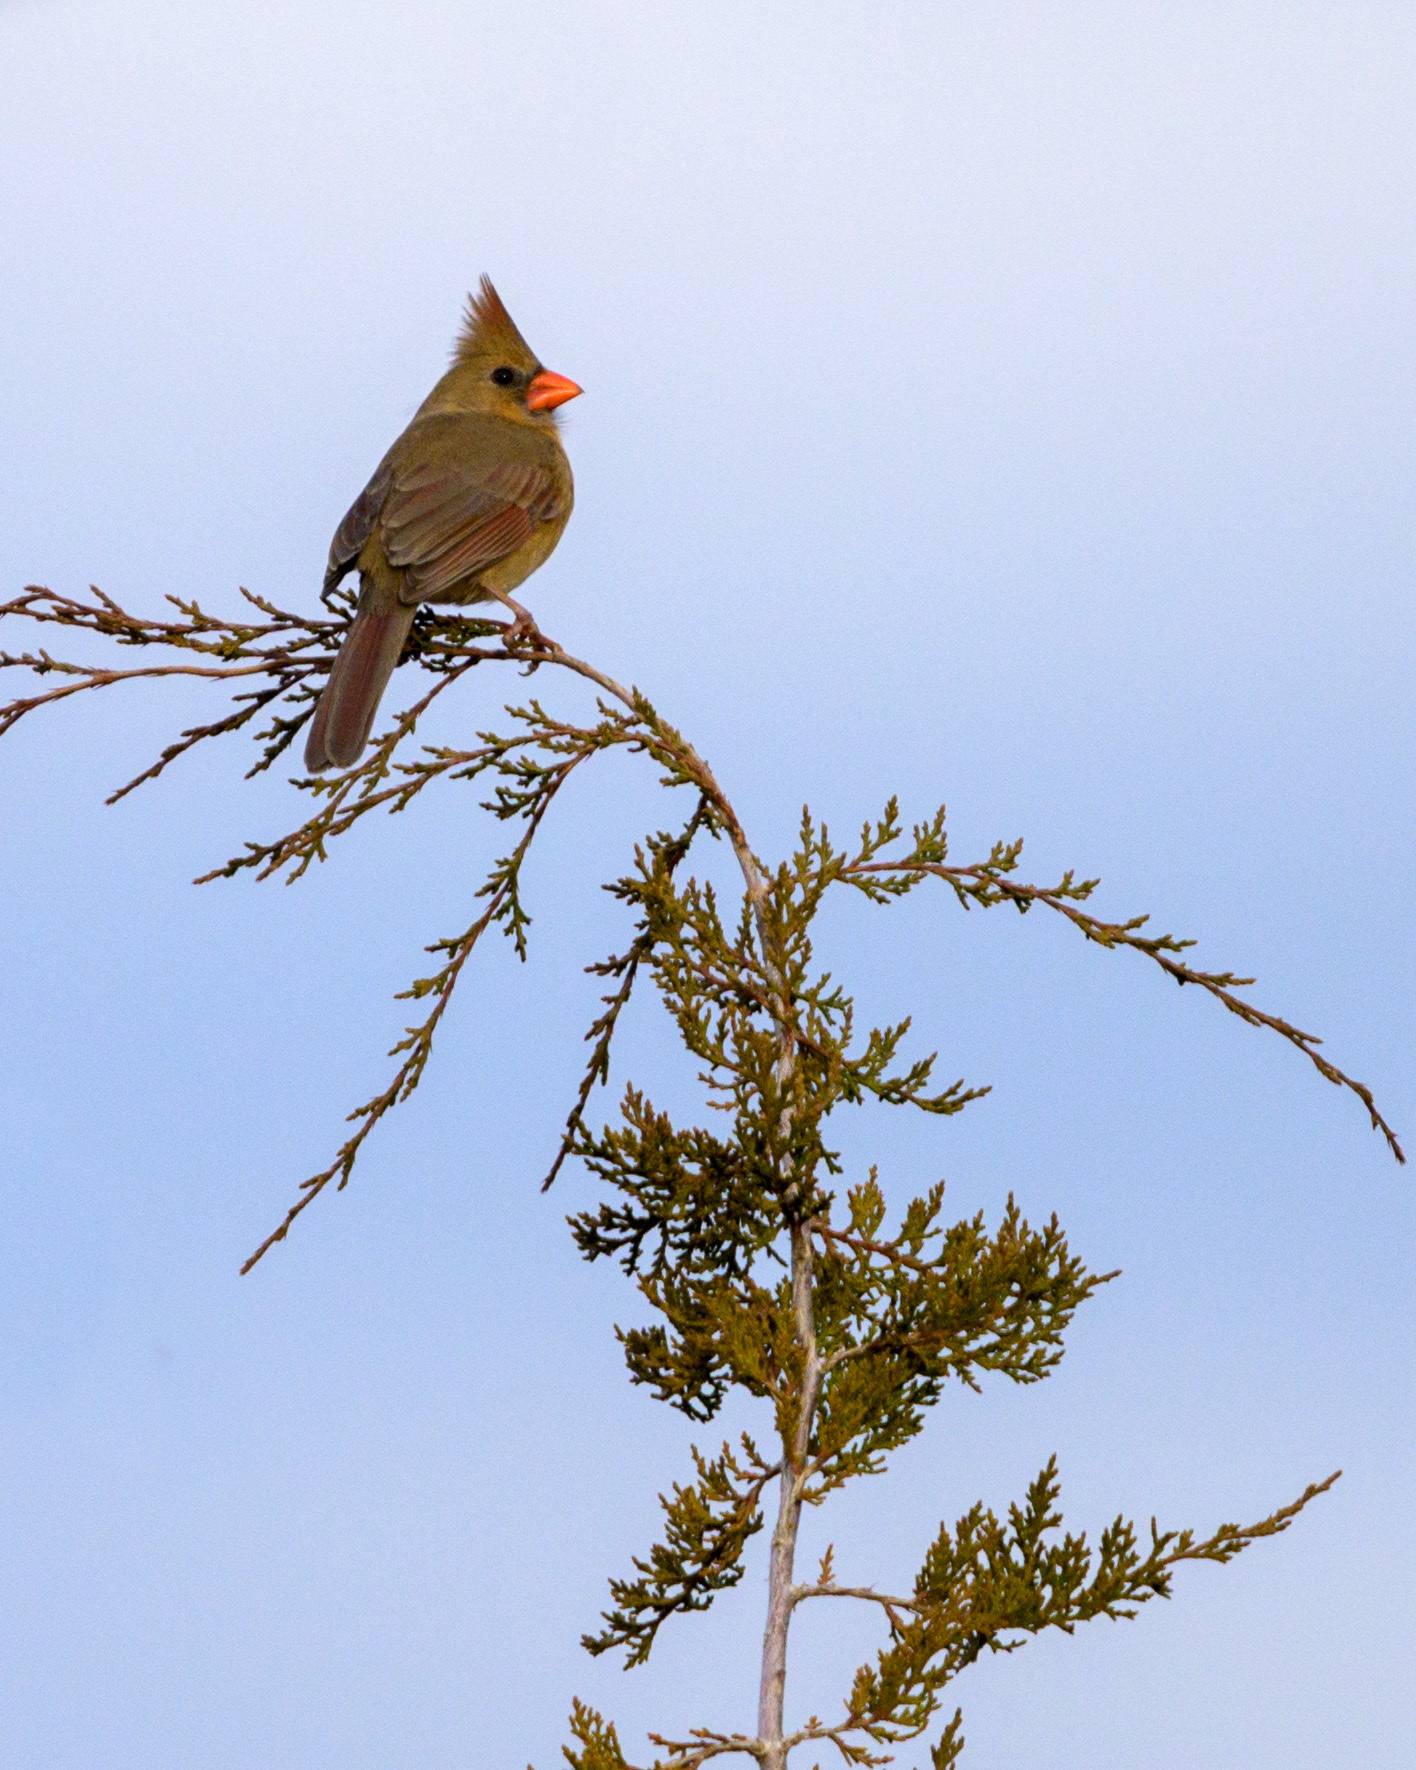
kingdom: Animalia
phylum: Chordata
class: Aves
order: Passeriformes
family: Cardinalidae
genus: Cardinalis
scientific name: Cardinalis cardinalis
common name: Northern cardinal
